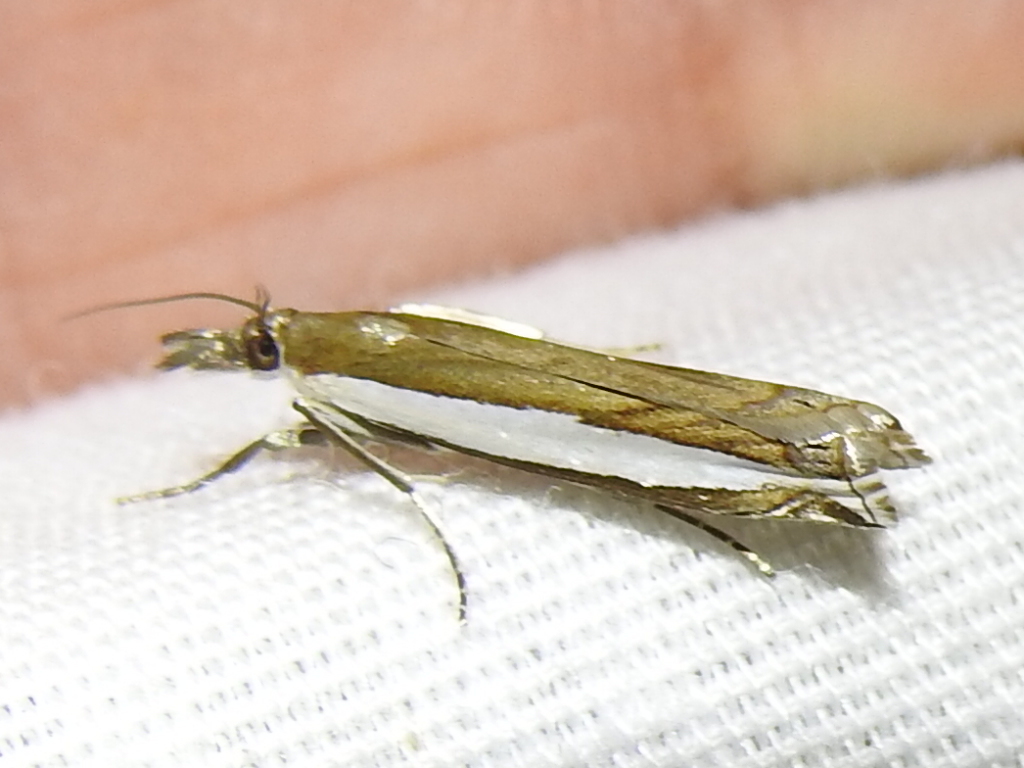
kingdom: Animalia
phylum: Arthropoda
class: Insecta
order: Lepidoptera
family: Crambidae
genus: Crambus
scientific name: Crambus quinquareatus
